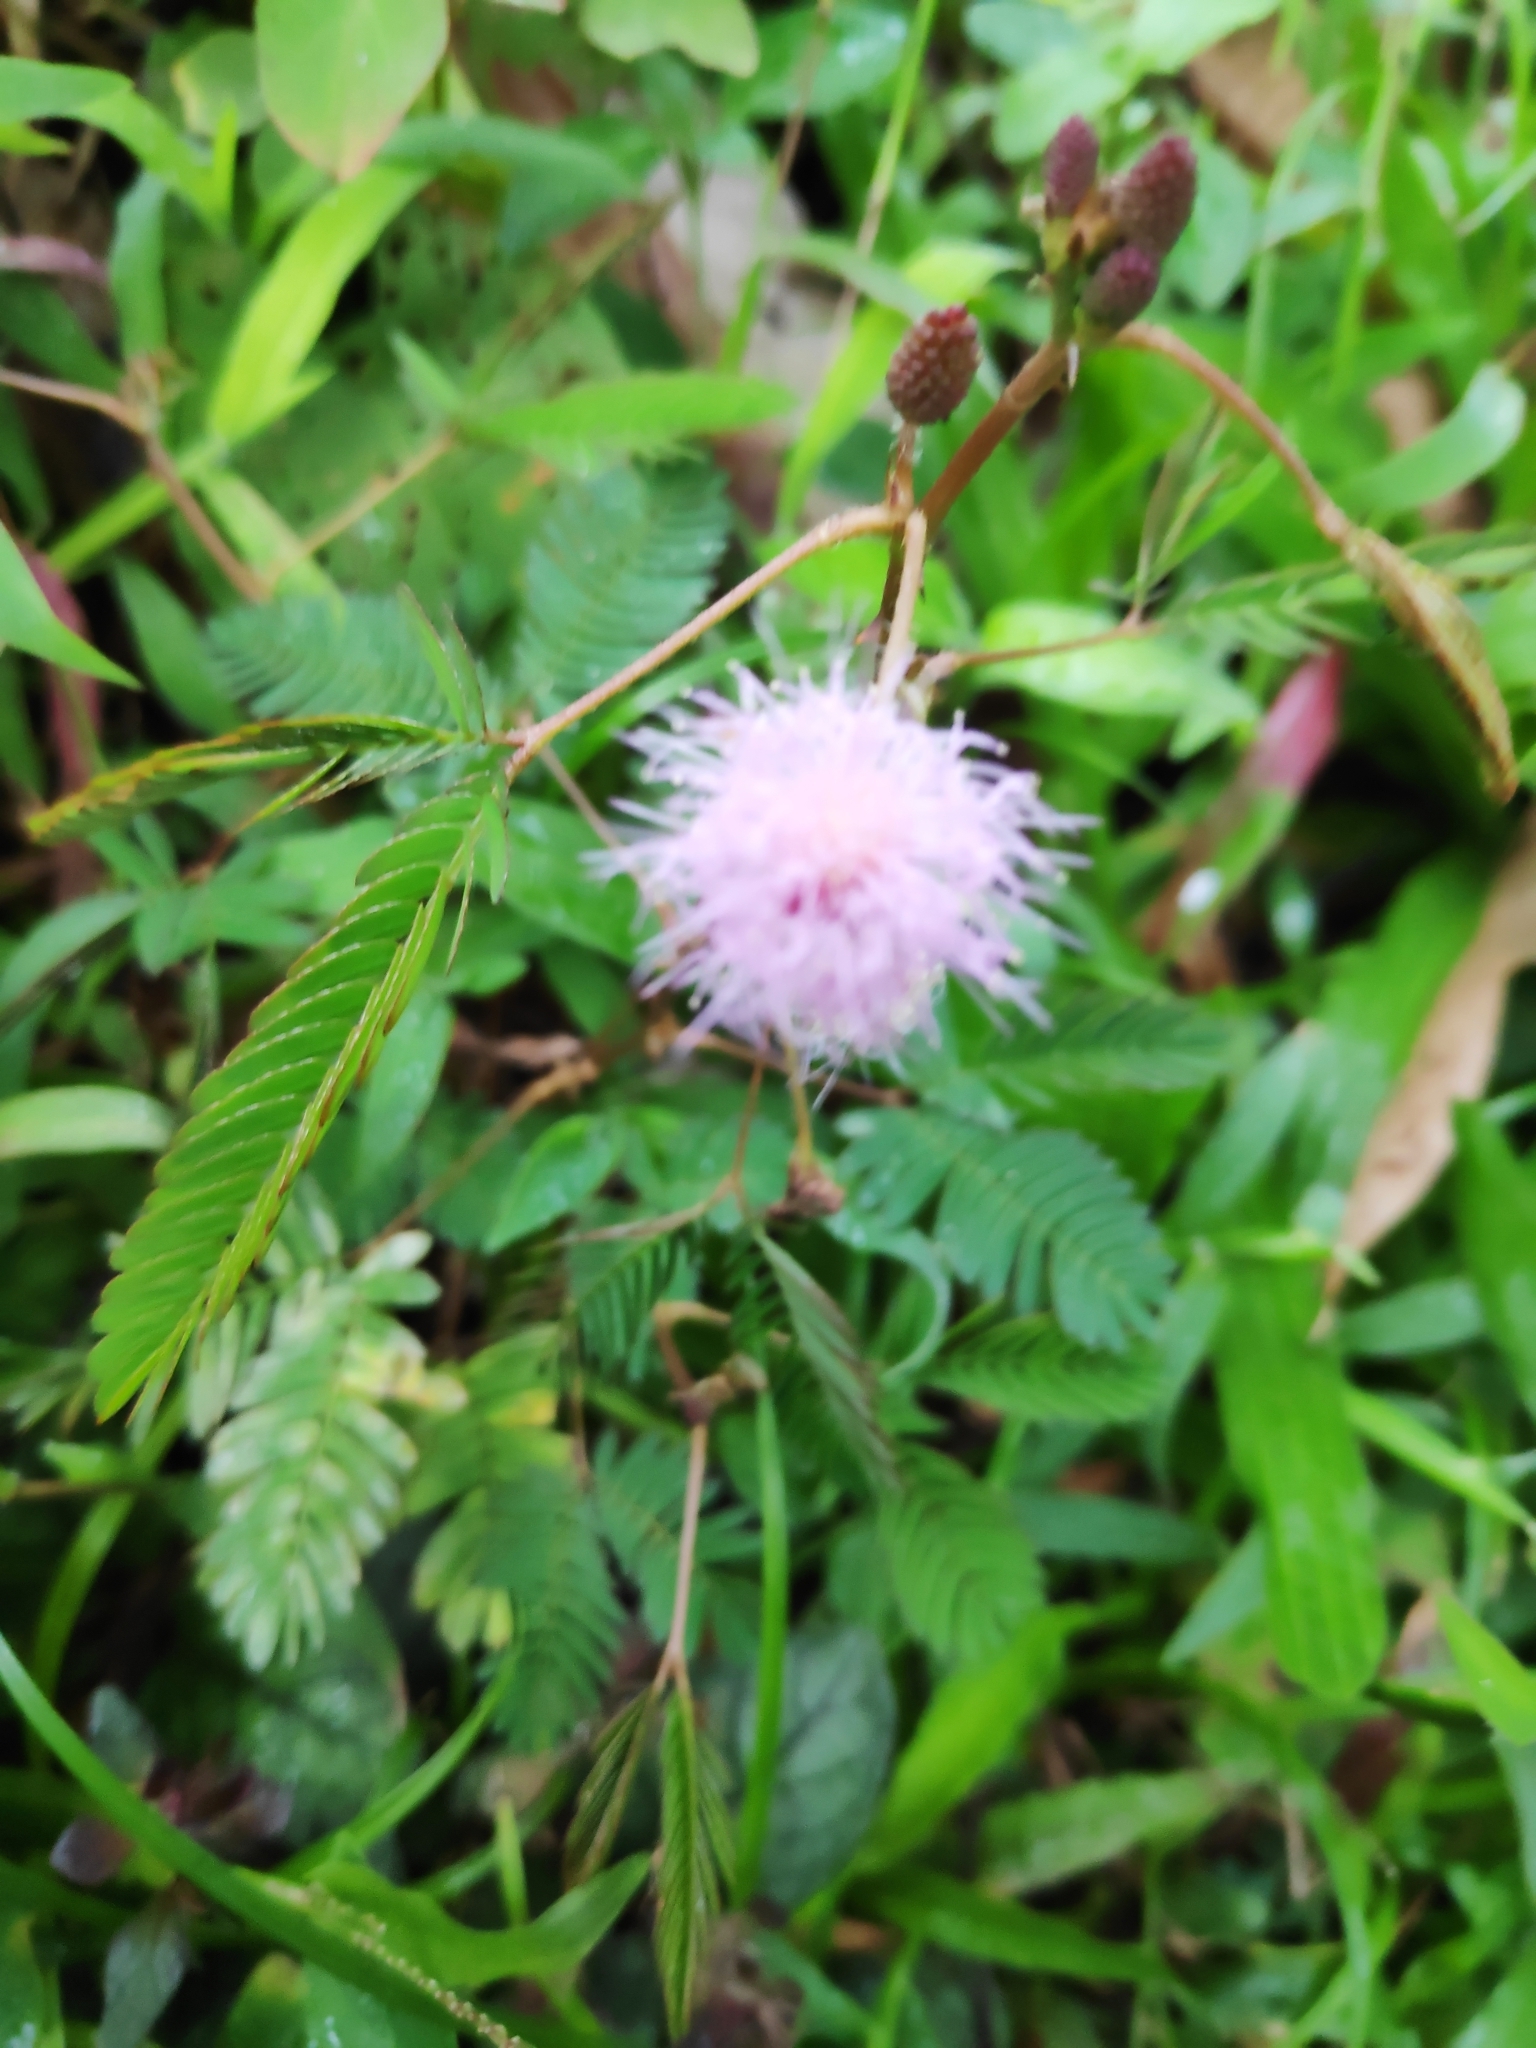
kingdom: Plantae
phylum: Tracheophyta
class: Magnoliopsida
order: Fabales
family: Fabaceae
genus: Mimosa
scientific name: Mimosa pudica
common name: Sensitive plant
